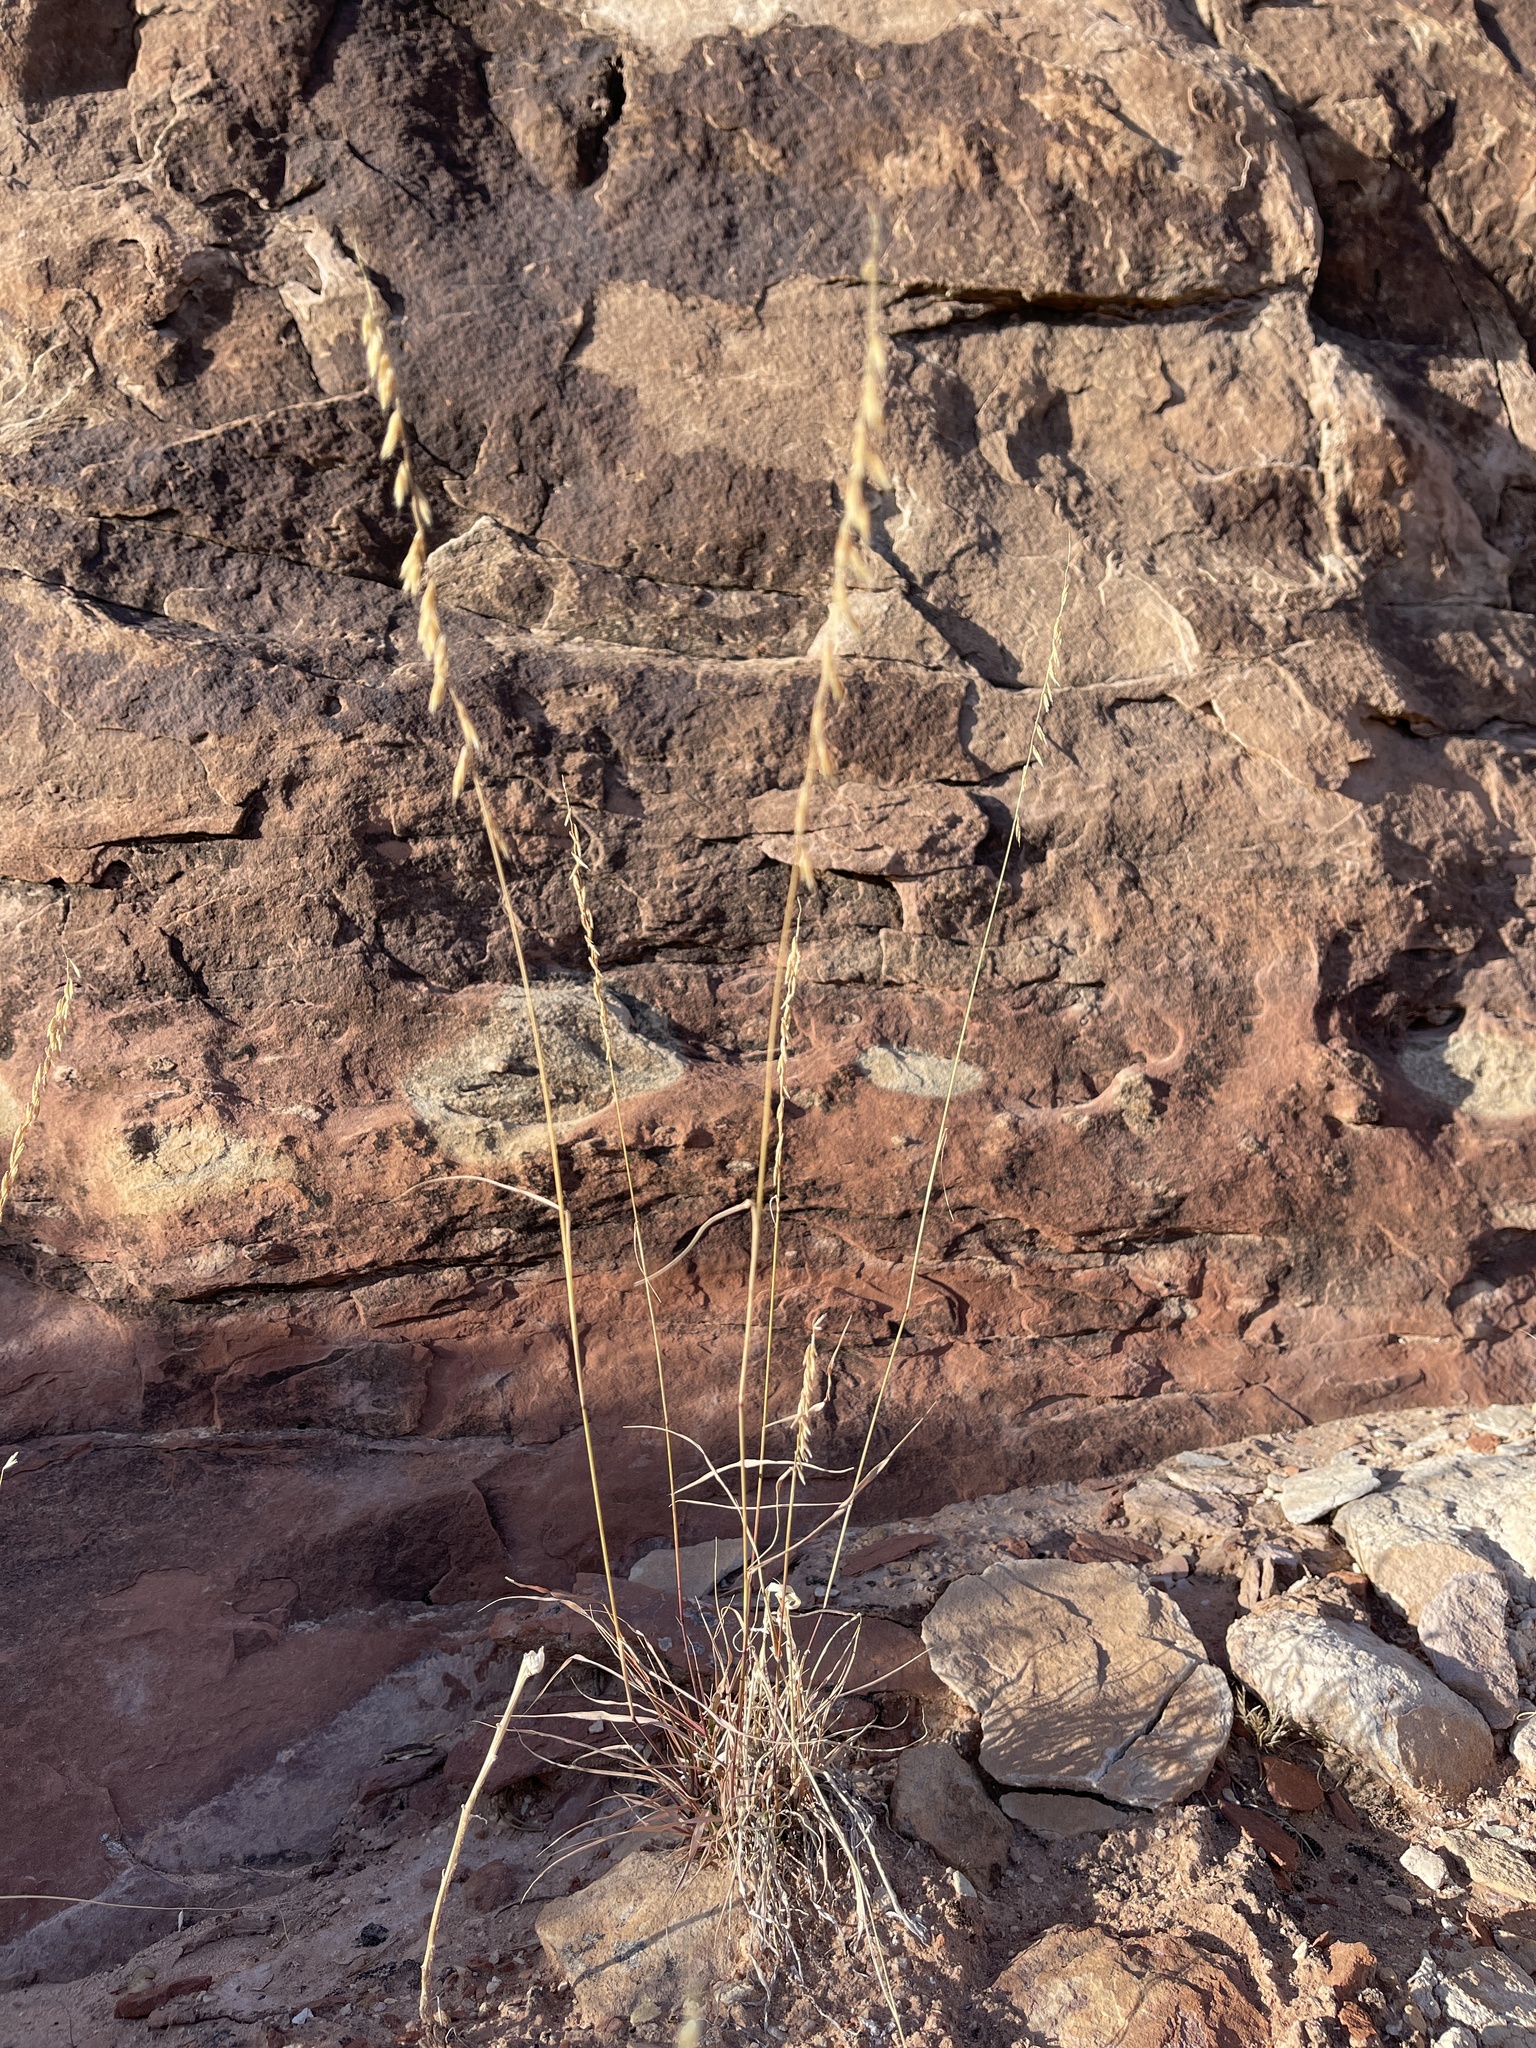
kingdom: Plantae
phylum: Tracheophyta
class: Liliopsida
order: Poales
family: Poaceae
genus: Bouteloua
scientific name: Bouteloua curtipendula
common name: Side-oats grama
